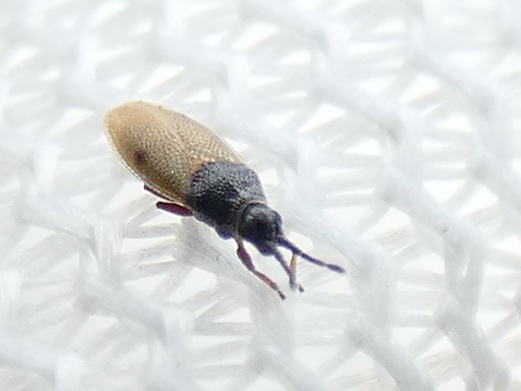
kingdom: Animalia
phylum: Arthropoda
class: Insecta
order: Hemiptera
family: Tingidae
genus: Agramma
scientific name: Agramma laetum
